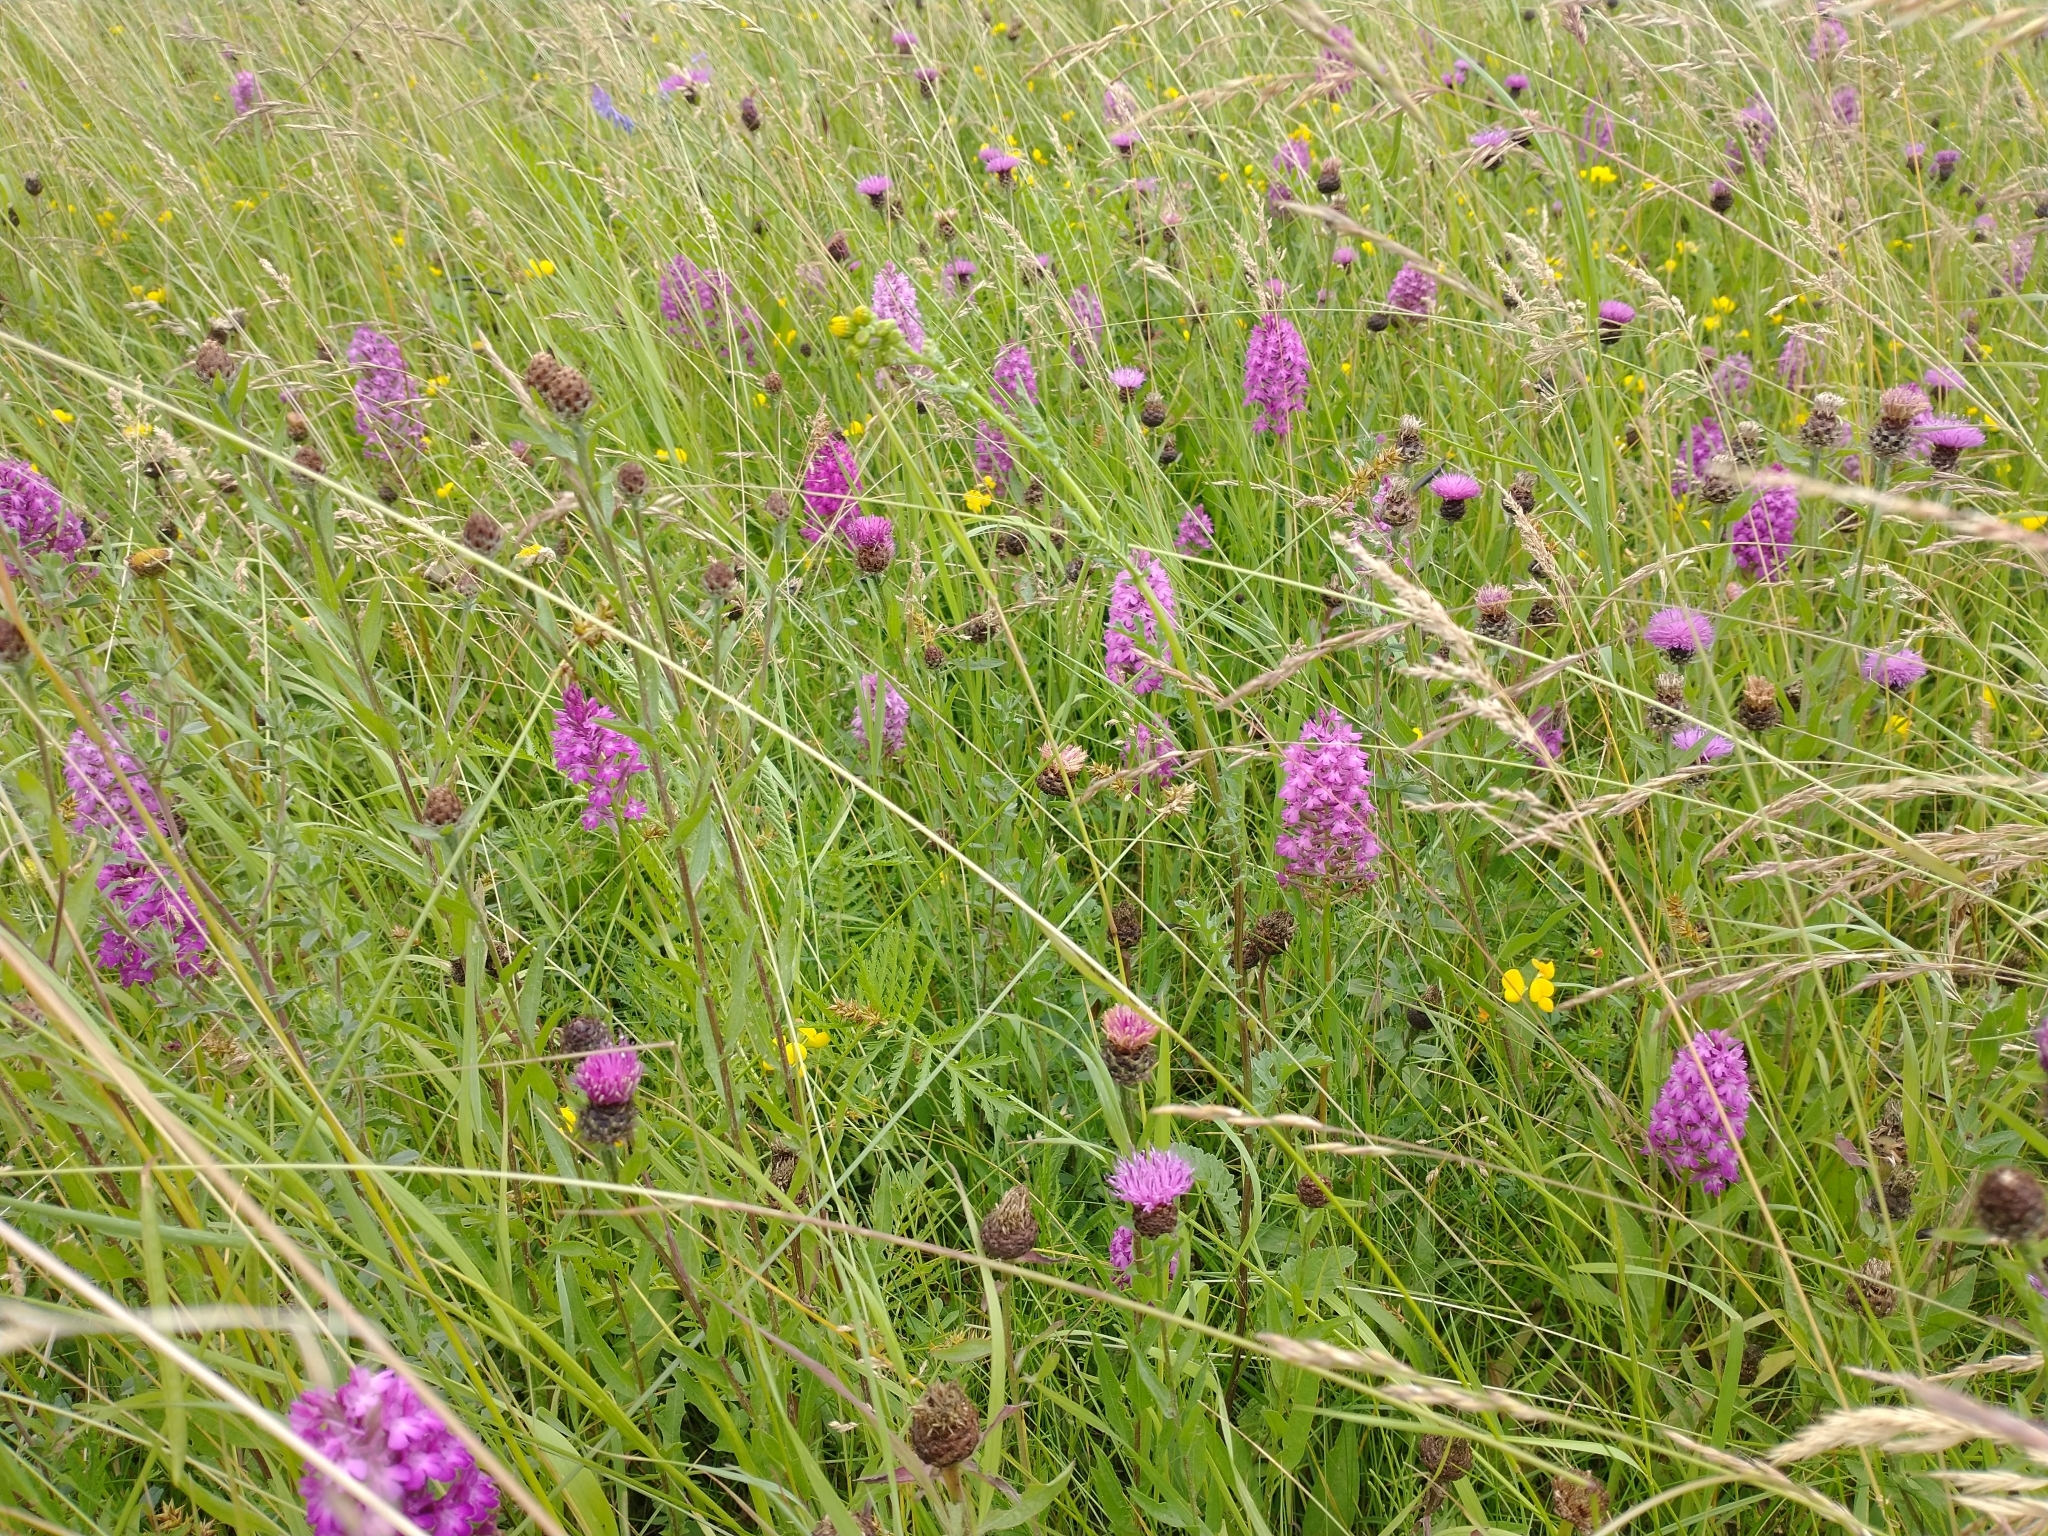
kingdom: Plantae
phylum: Tracheophyta
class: Liliopsida
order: Asparagales
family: Orchidaceae
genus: Anacamptis
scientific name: Anacamptis pyramidalis
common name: Pyramidal orchid
